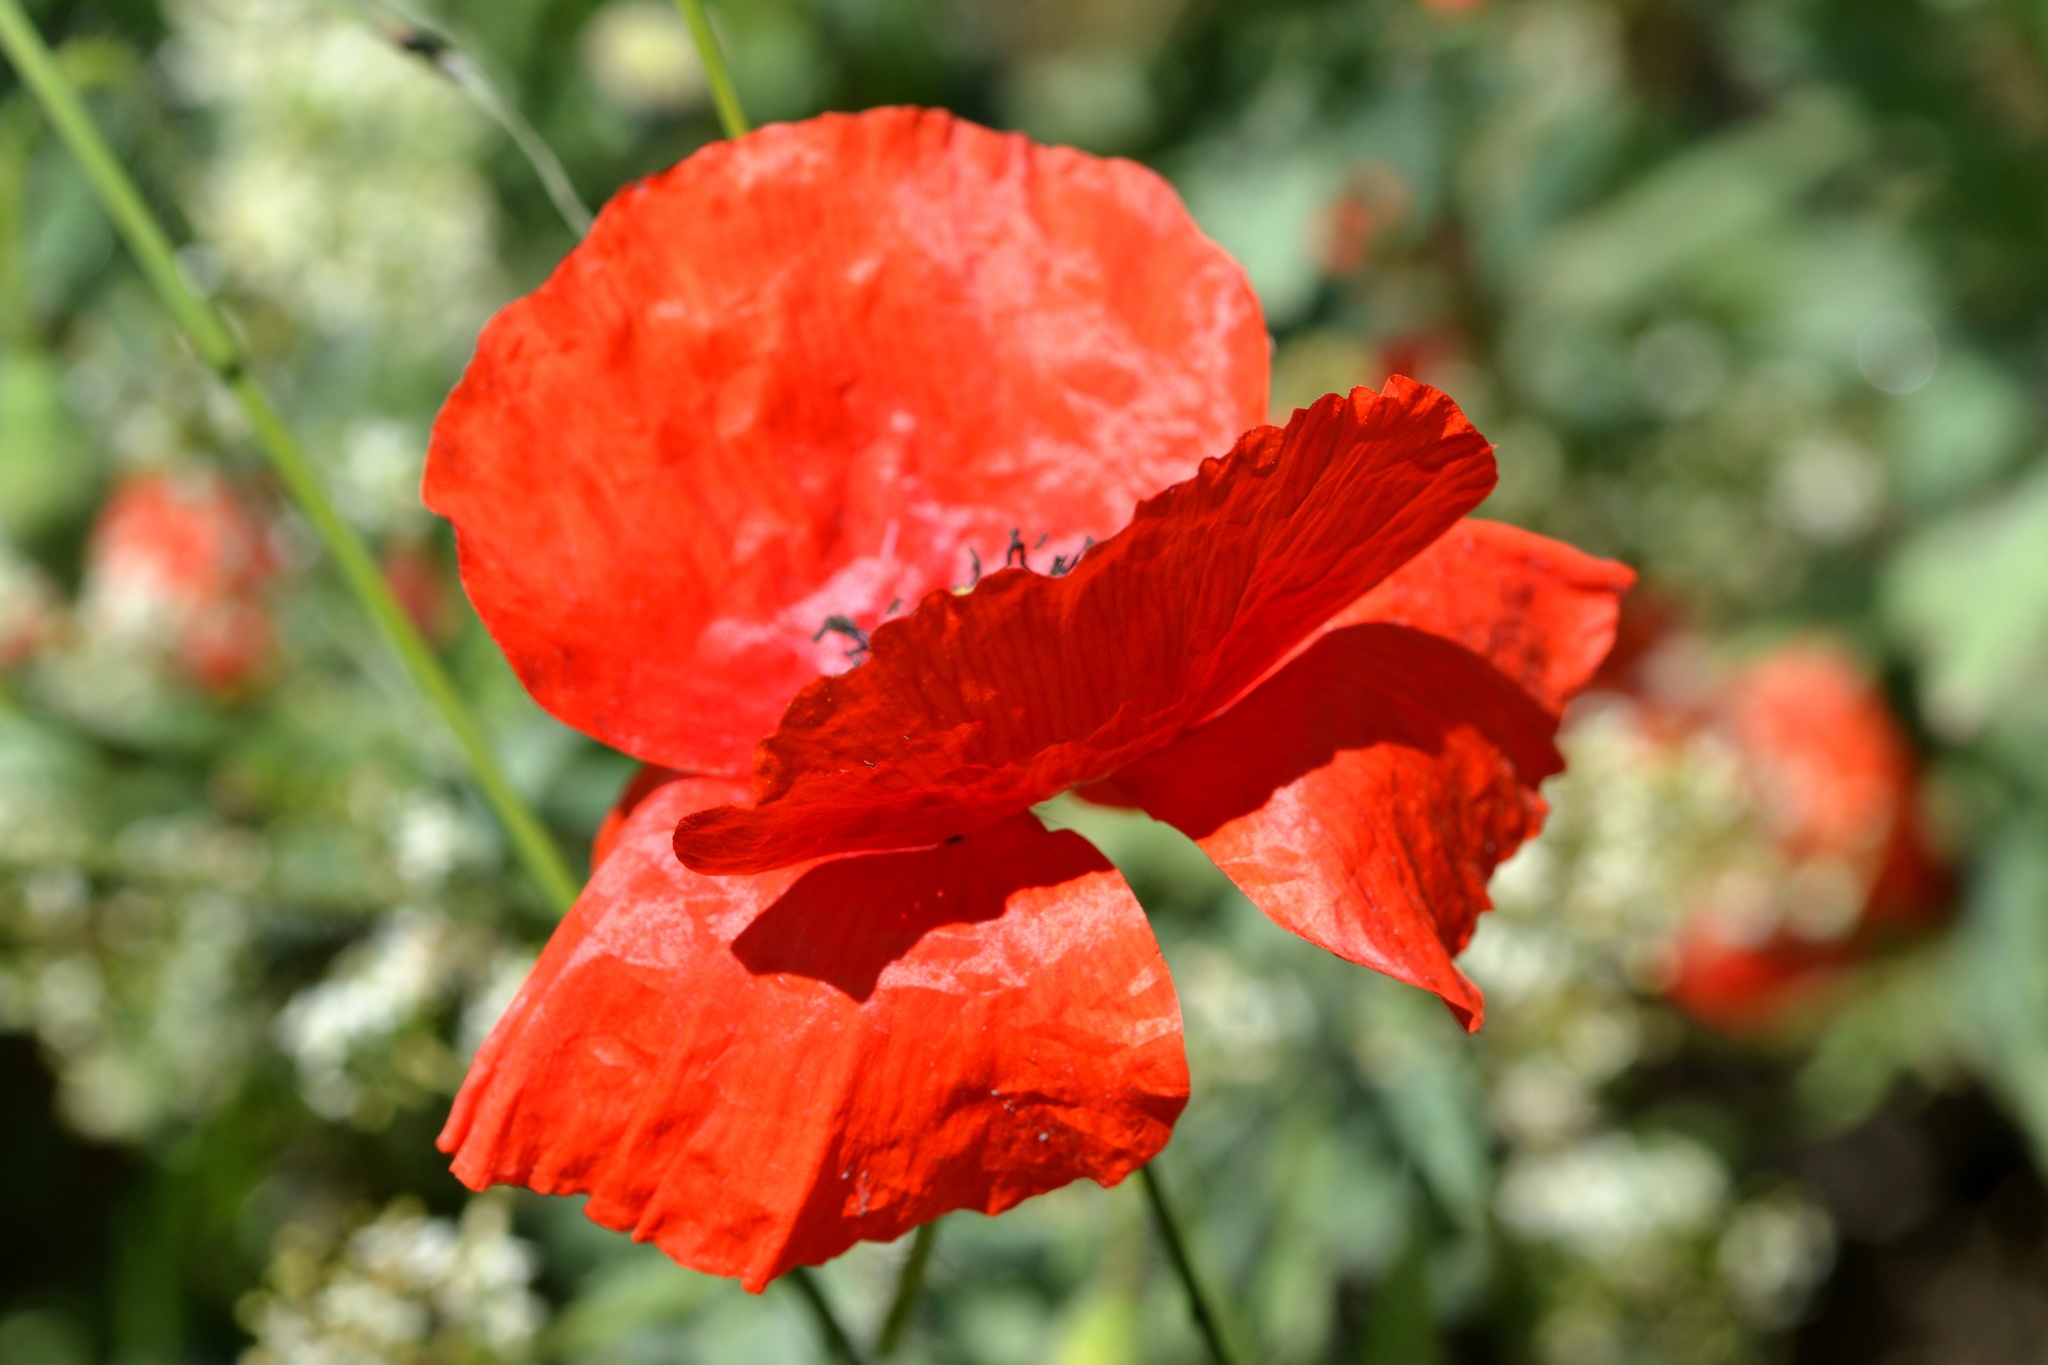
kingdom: Plantae
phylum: Tracheophyta
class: Magnoliopsida
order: Ranunculales
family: Papaveraceae
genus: Papaver
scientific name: Papaver rhoeas
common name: Corn poppy
